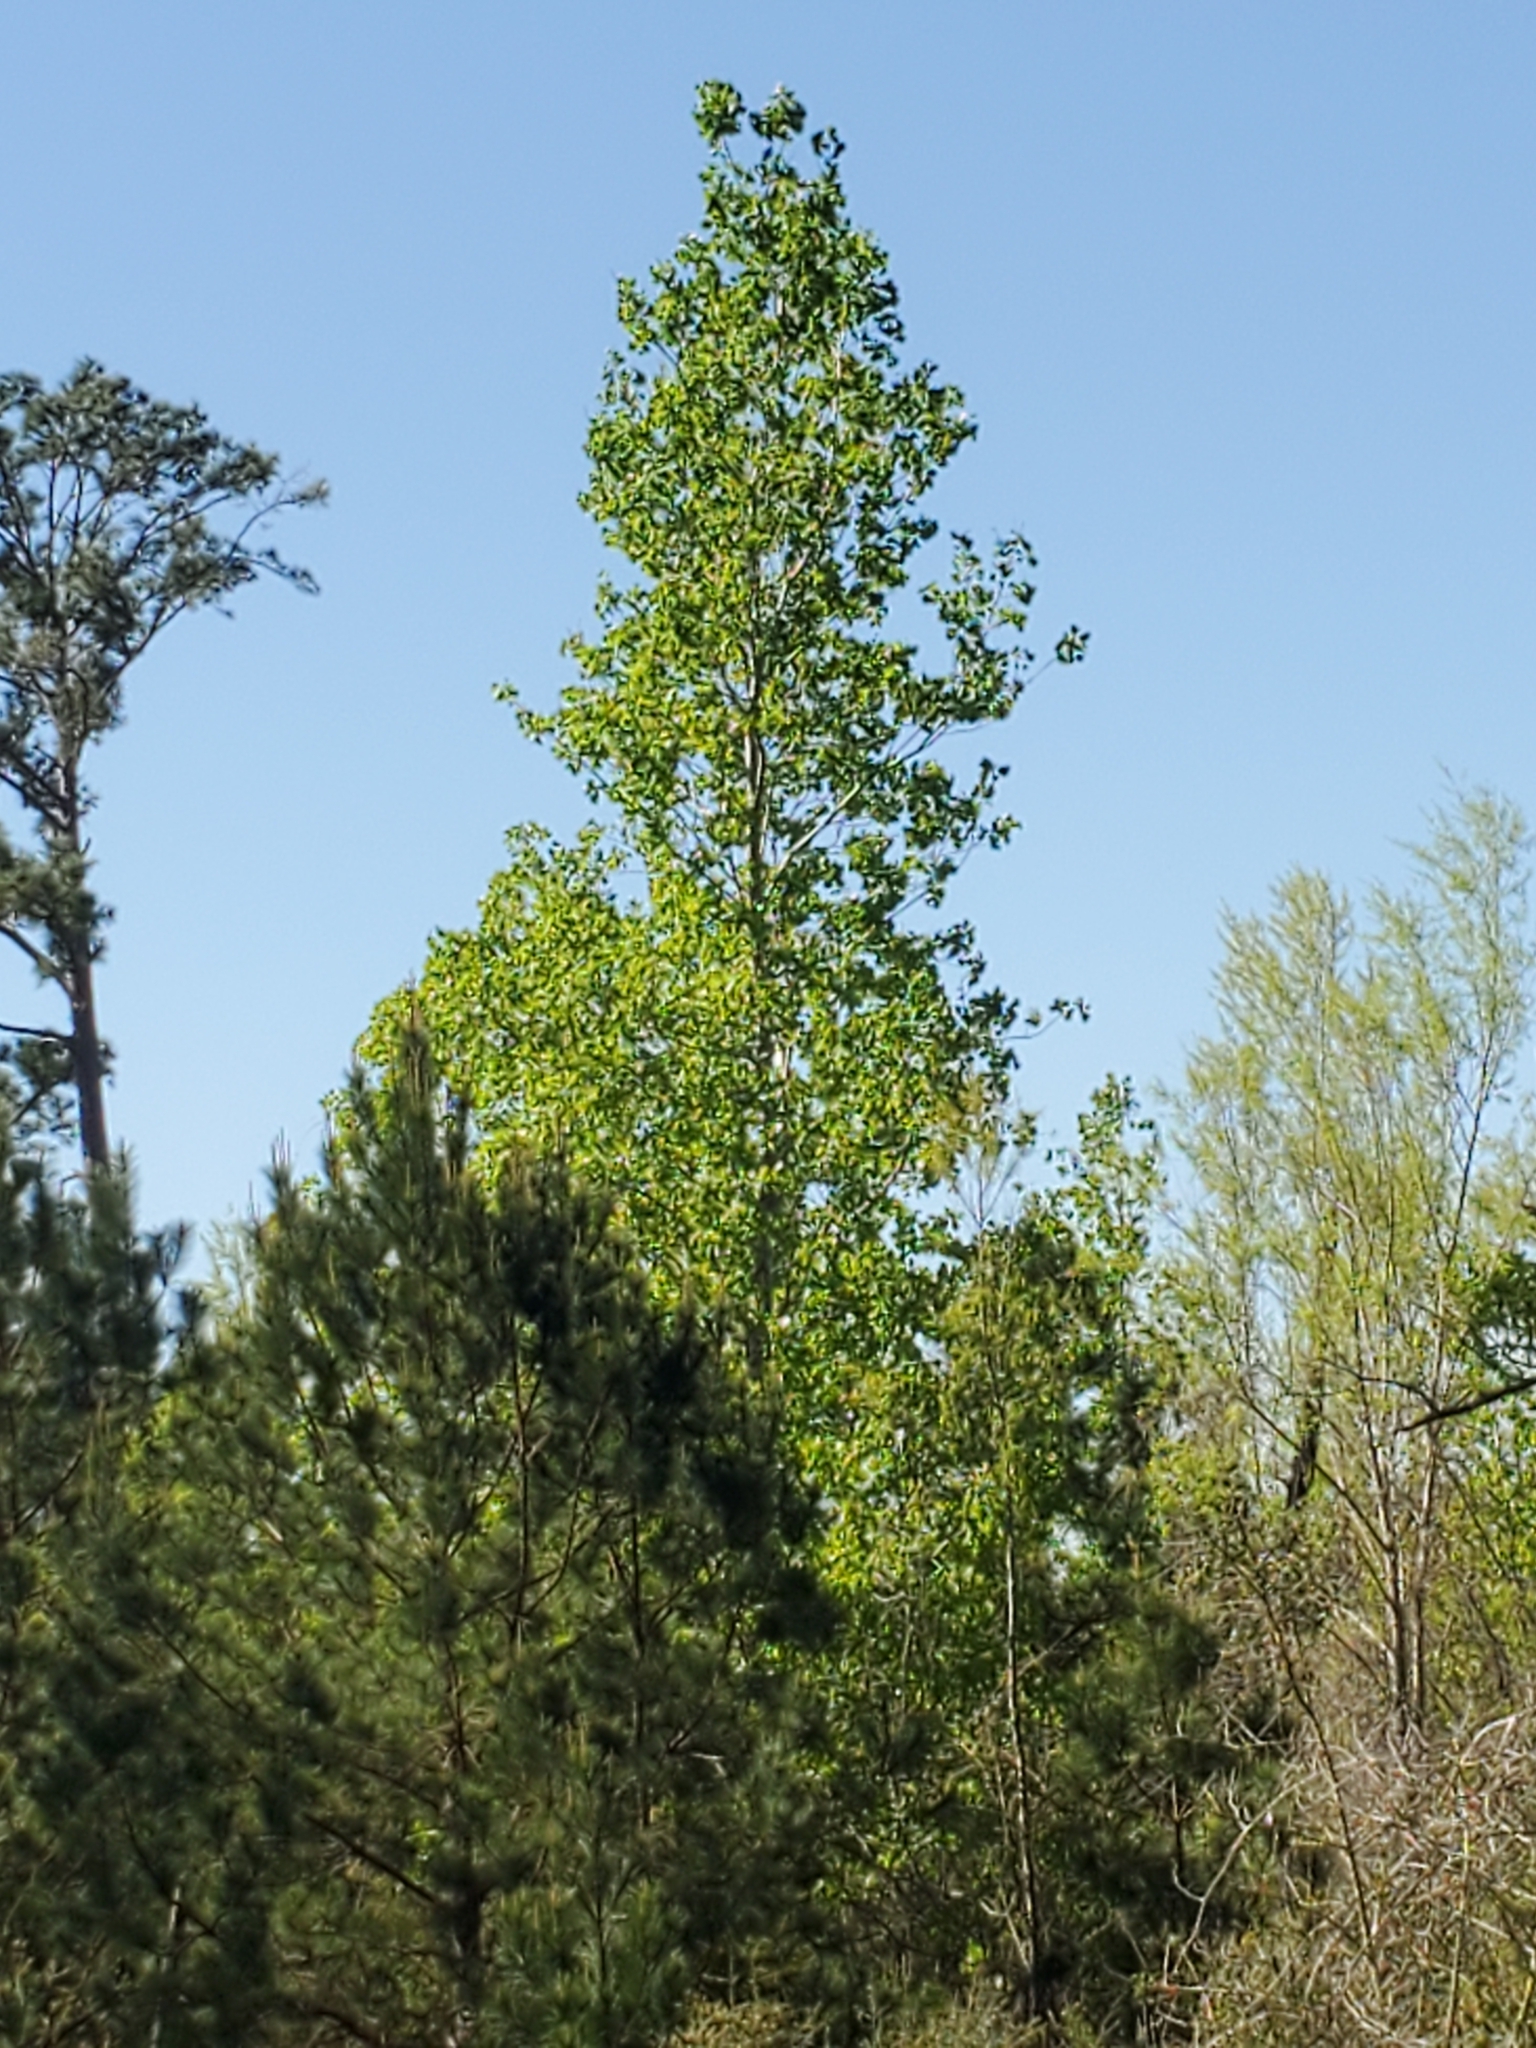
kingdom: Plantae
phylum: Tracheophyta
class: Magnoliopsida
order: Malpighiales
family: Salicaceae
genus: Populus
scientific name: Populus deltoides
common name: Eastern cottonwood
